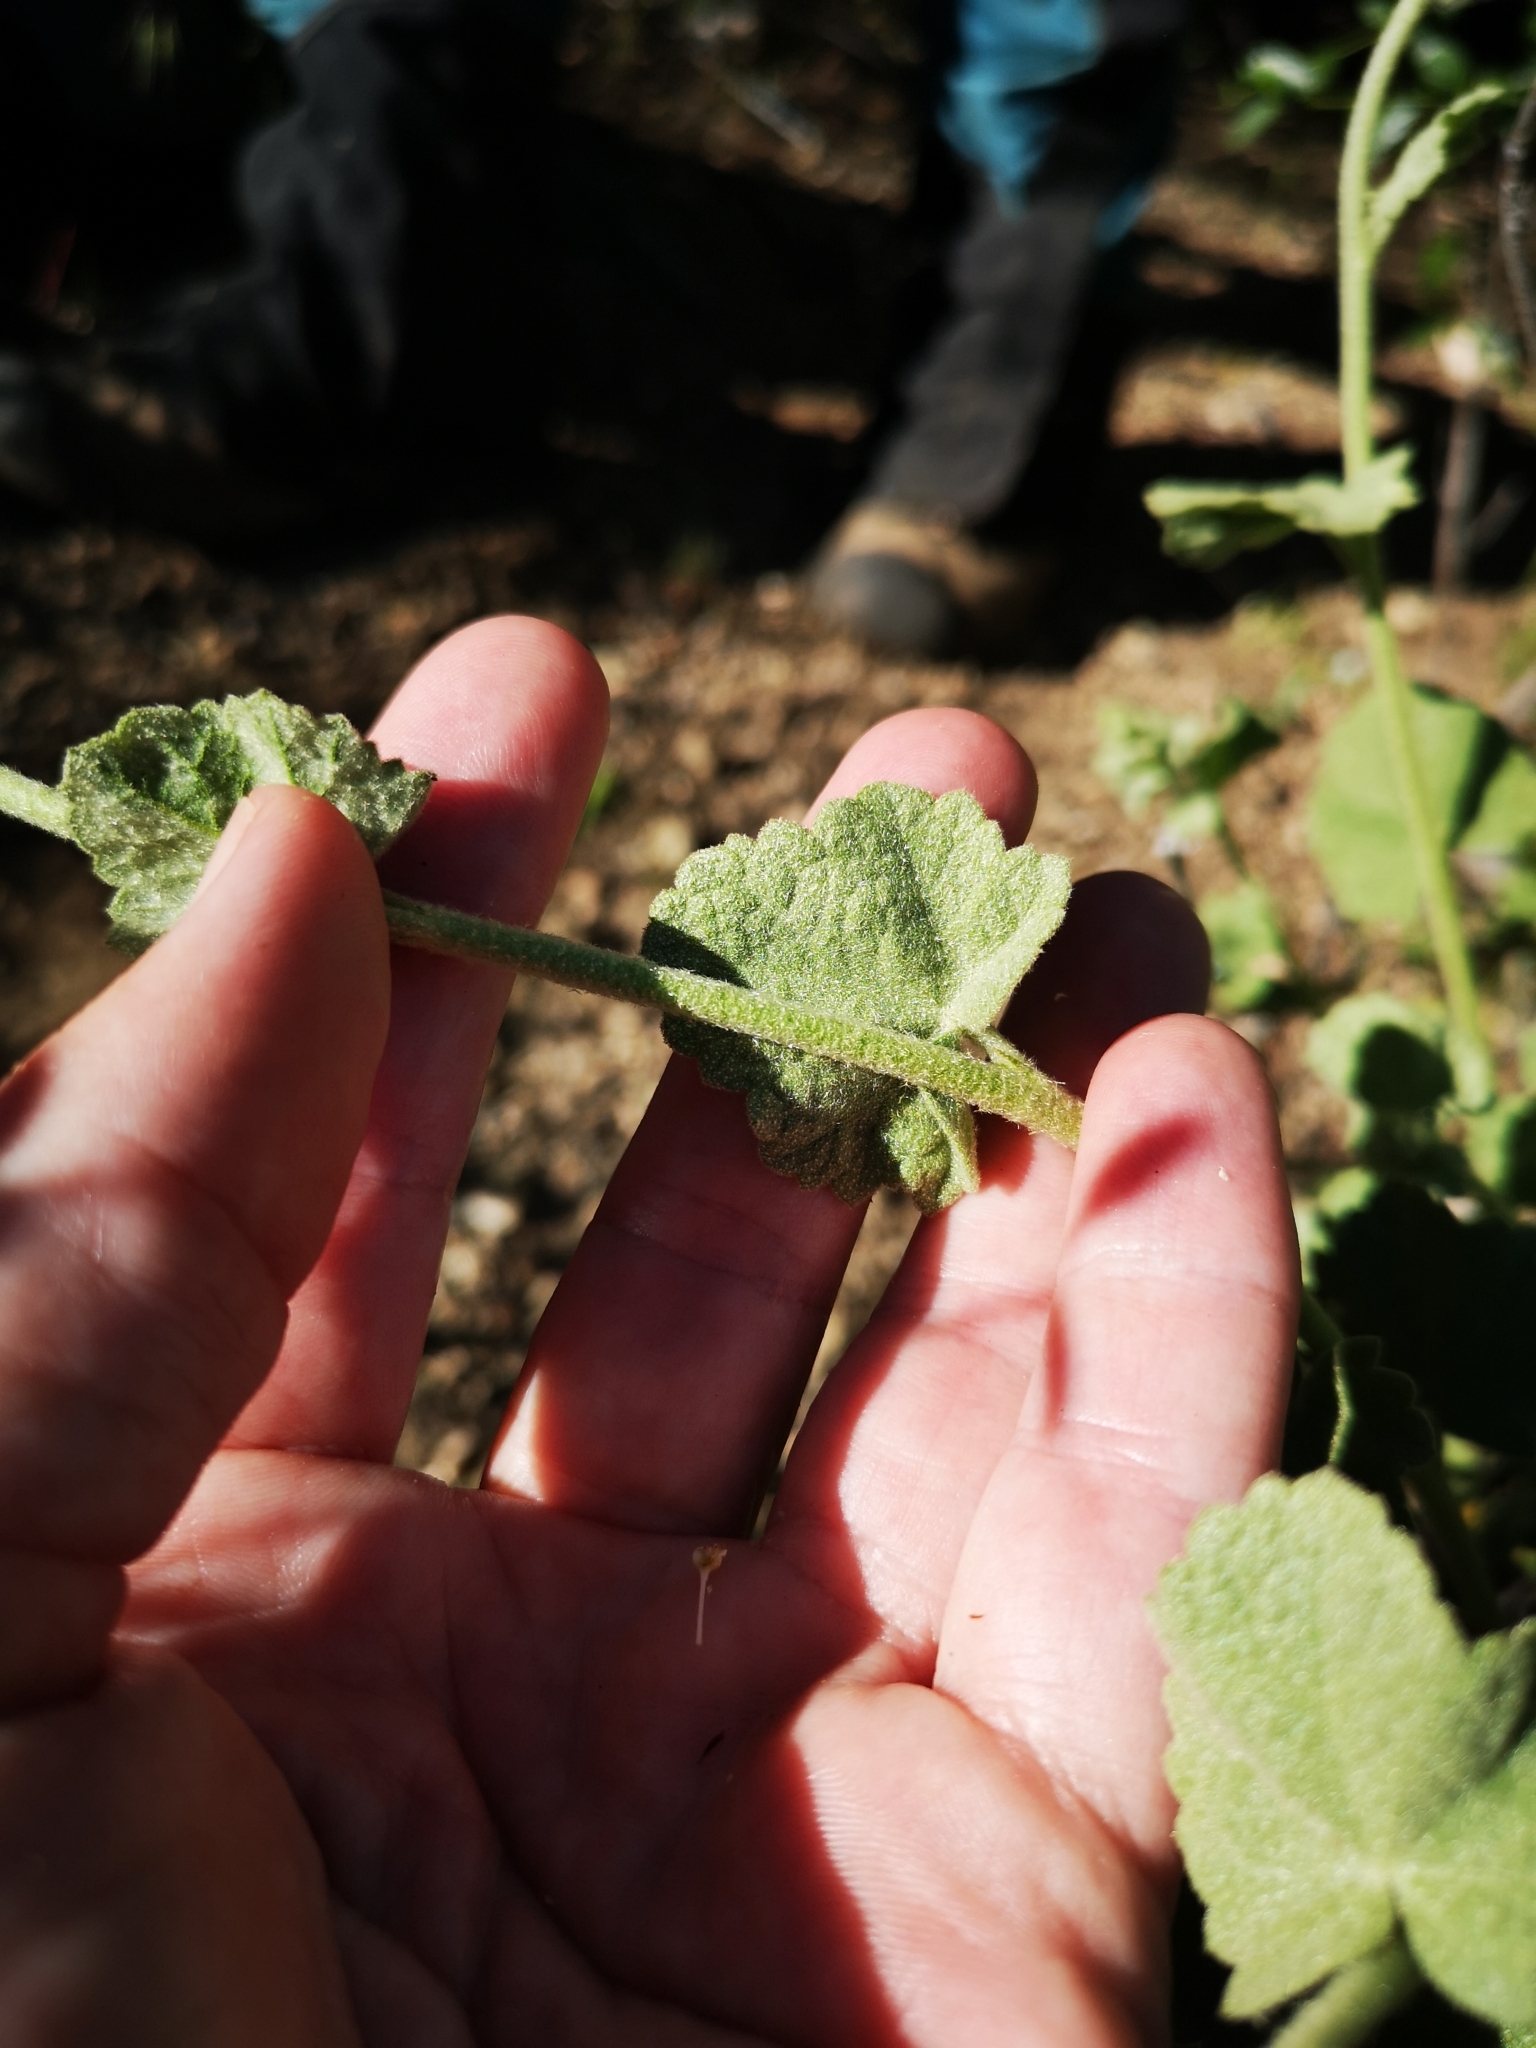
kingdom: Plantae
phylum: Tracheophyta
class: Magnoliopsida
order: Malvales
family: Malvaceae
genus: Malacothamnus
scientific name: Malacothamnus fremontii
